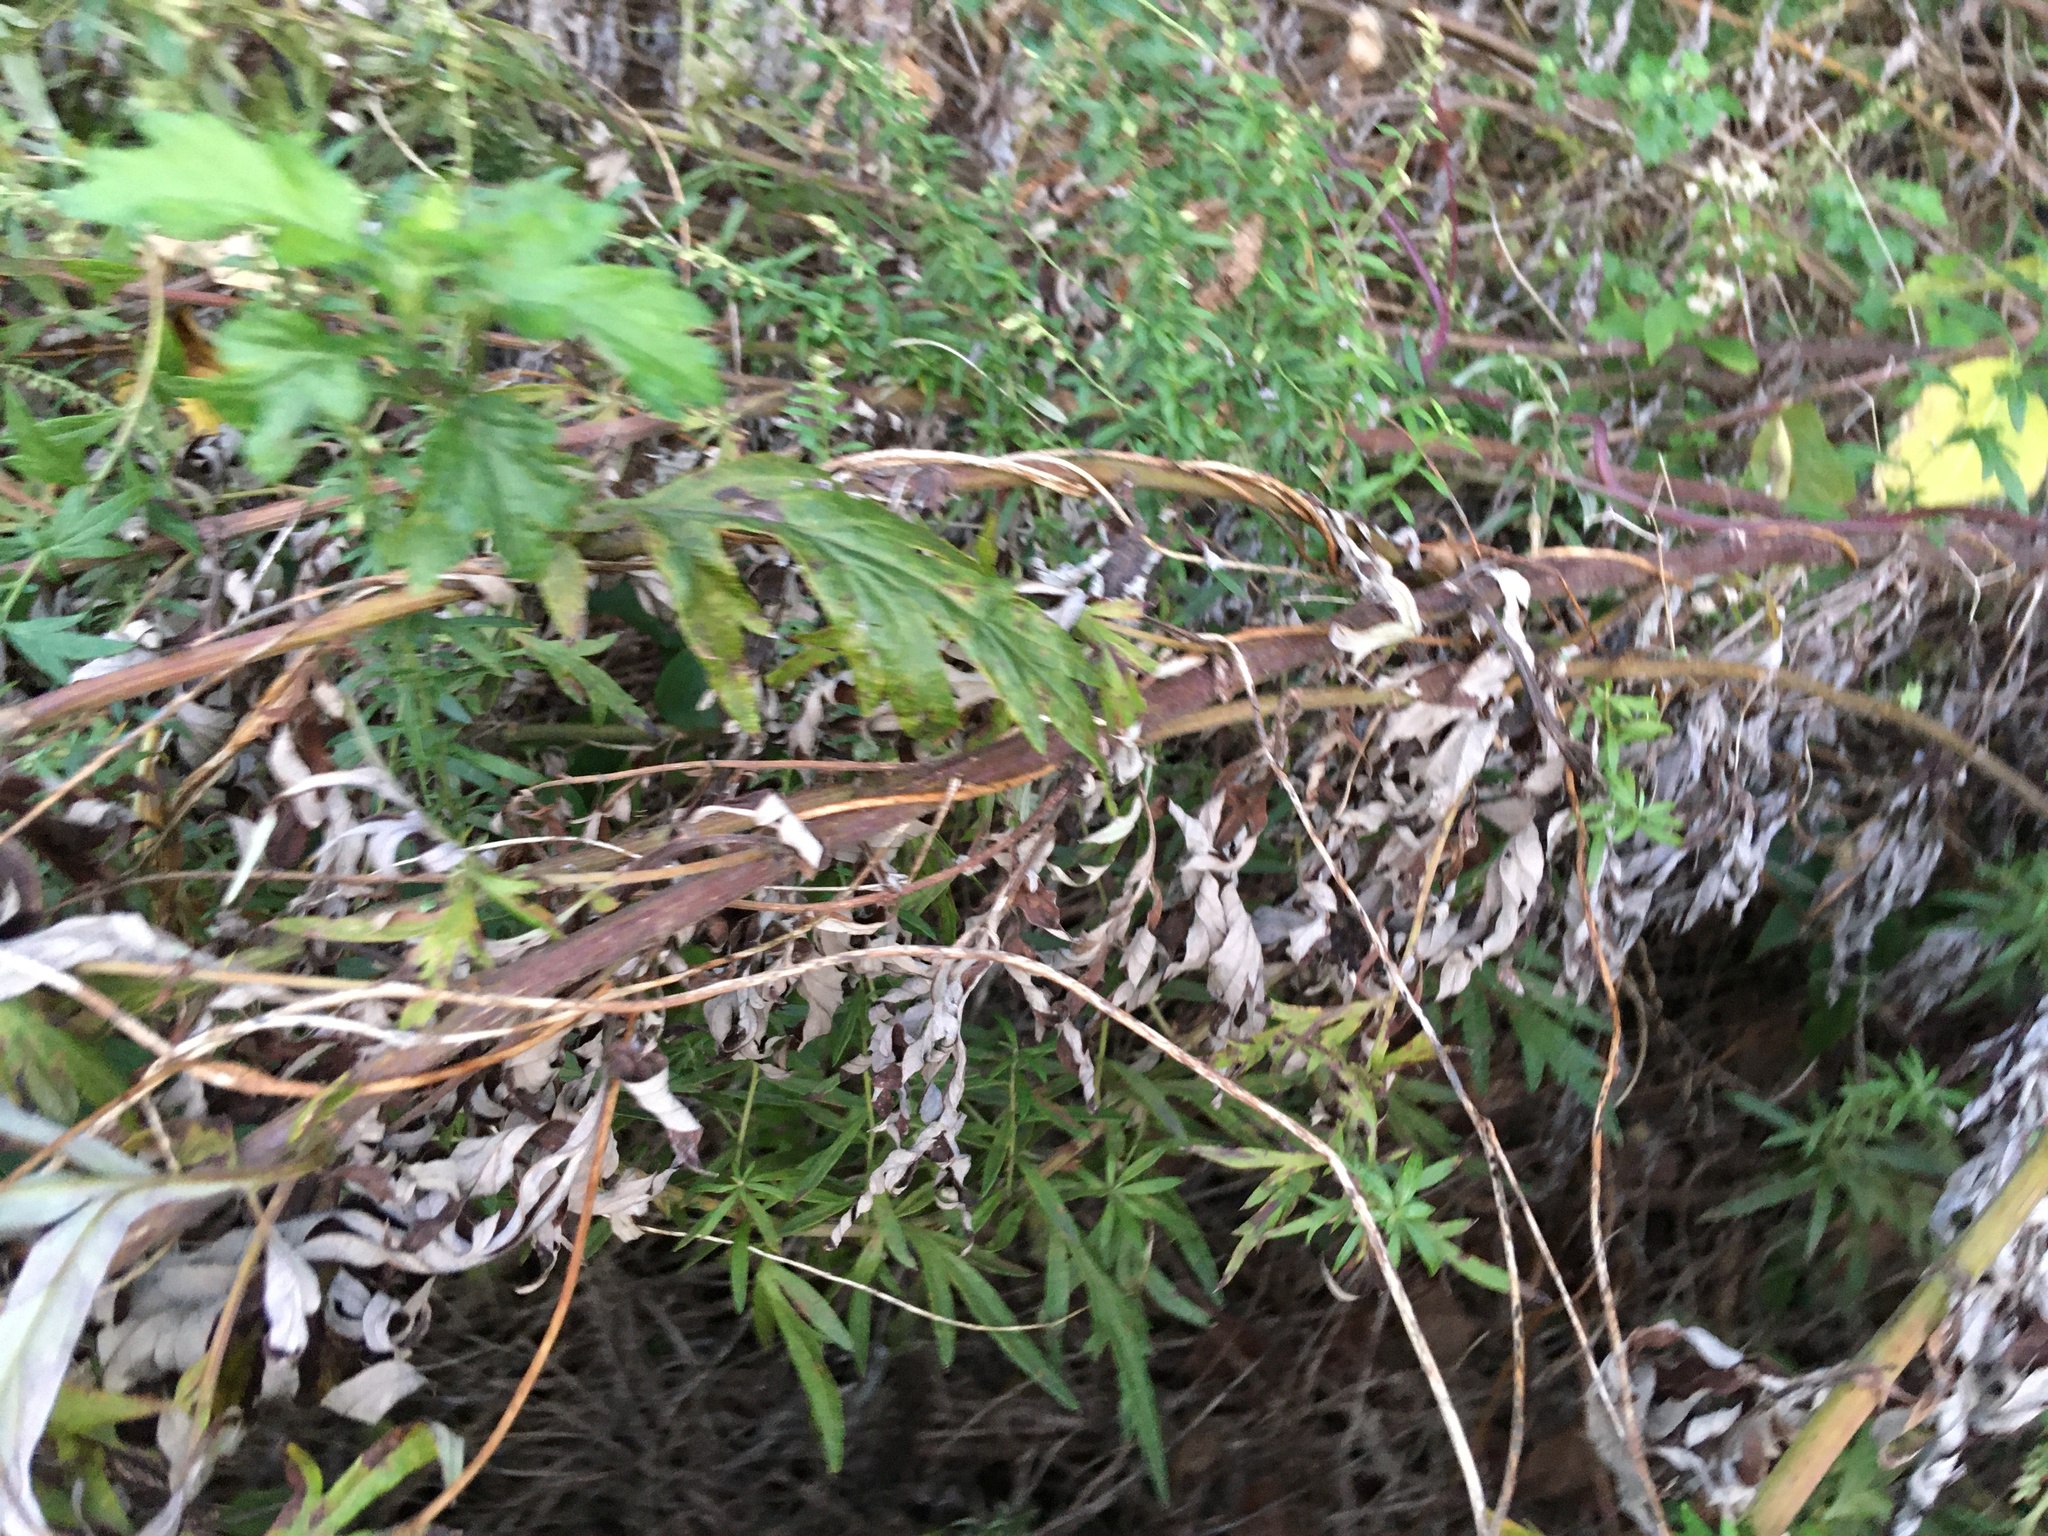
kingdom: Plantae
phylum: Tracheophyta
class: Magnoliopsida
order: Asterales
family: Asteraceae
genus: Artemisia
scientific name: Artemisia vulgaris
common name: Mugwort
